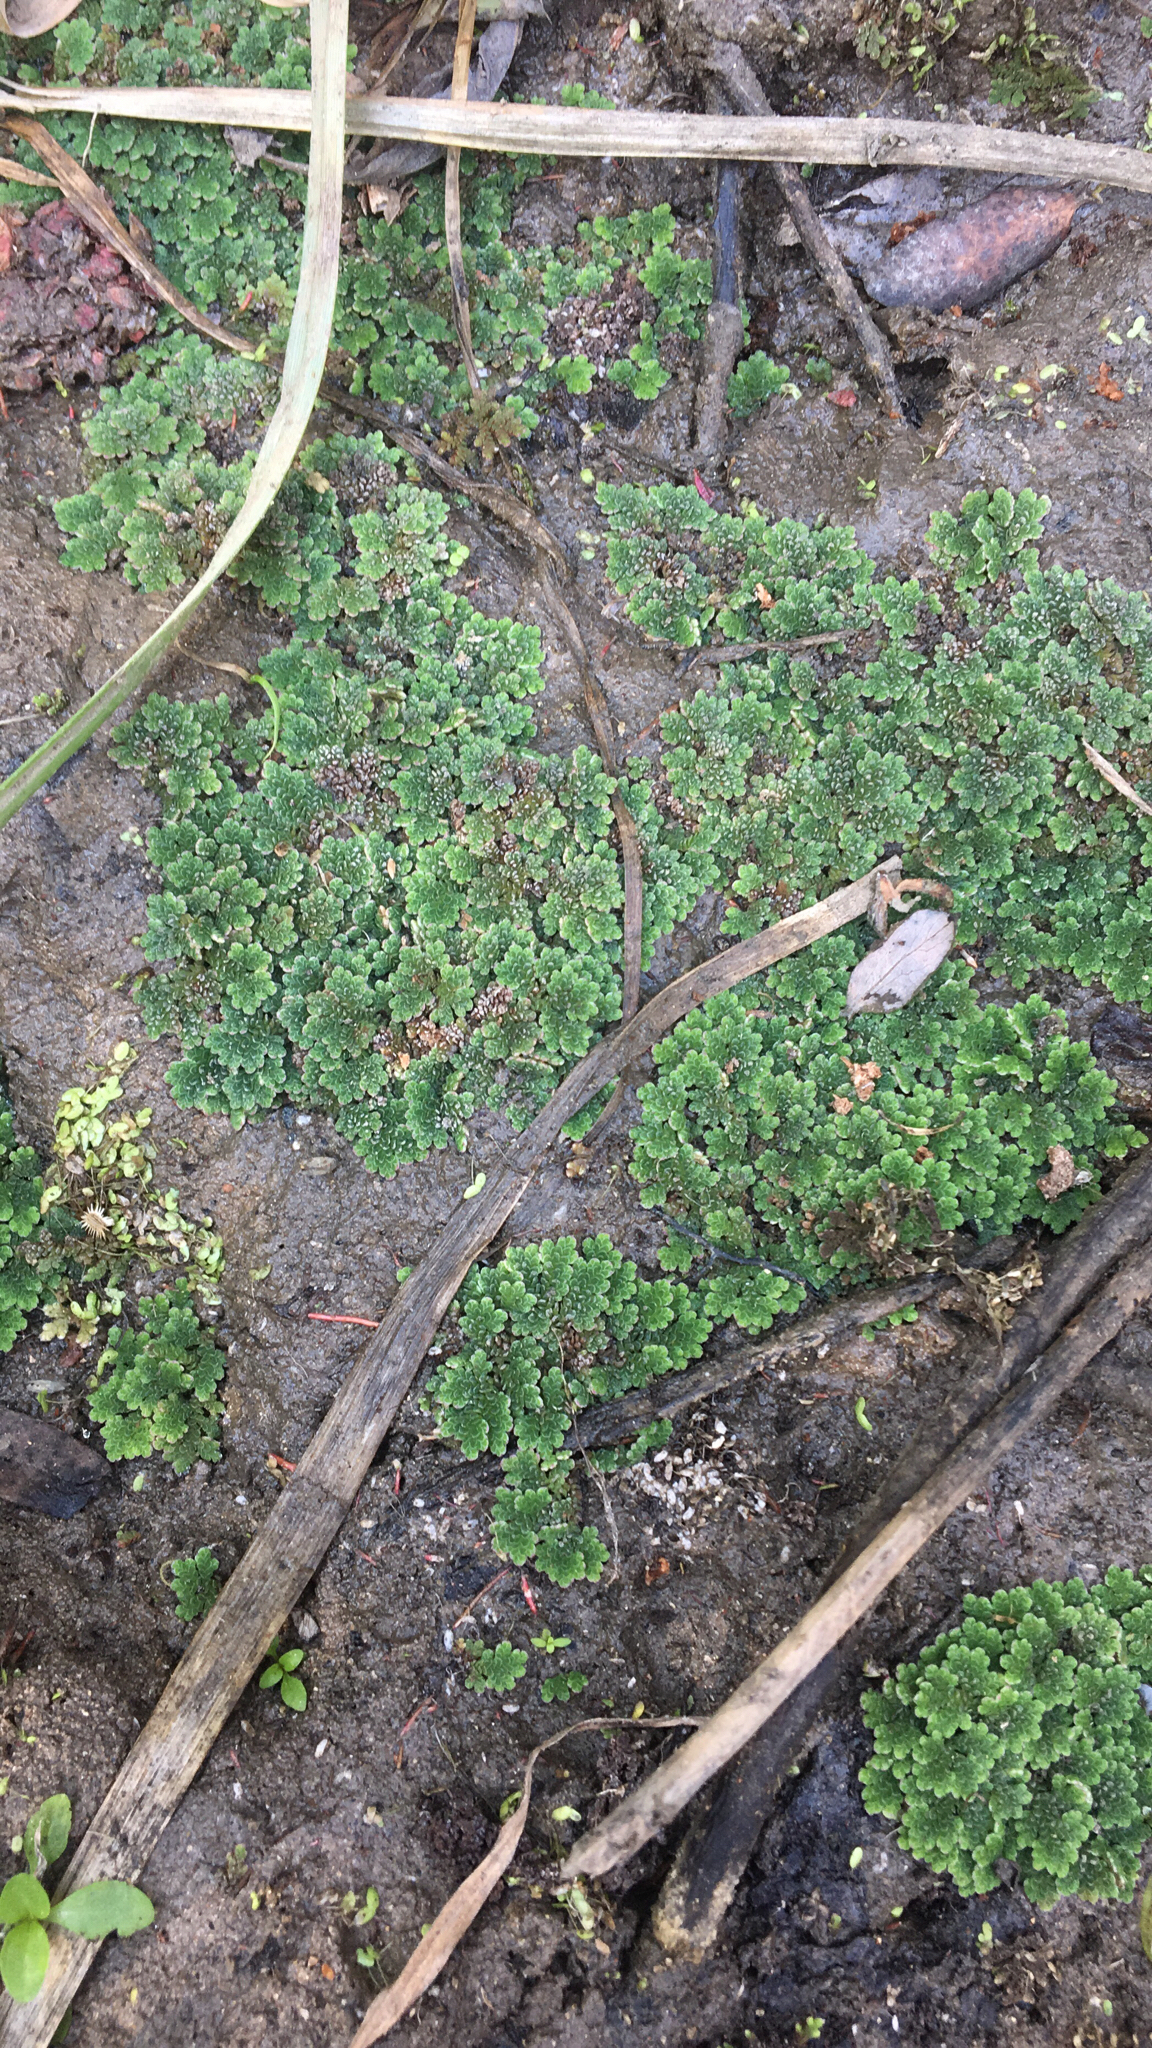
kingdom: Plantae
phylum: Tracheophyta
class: Polypodiopsida
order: Salviniales
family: Salviniaceae
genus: Azolla
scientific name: Azolla filiculoides
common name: Water fern
